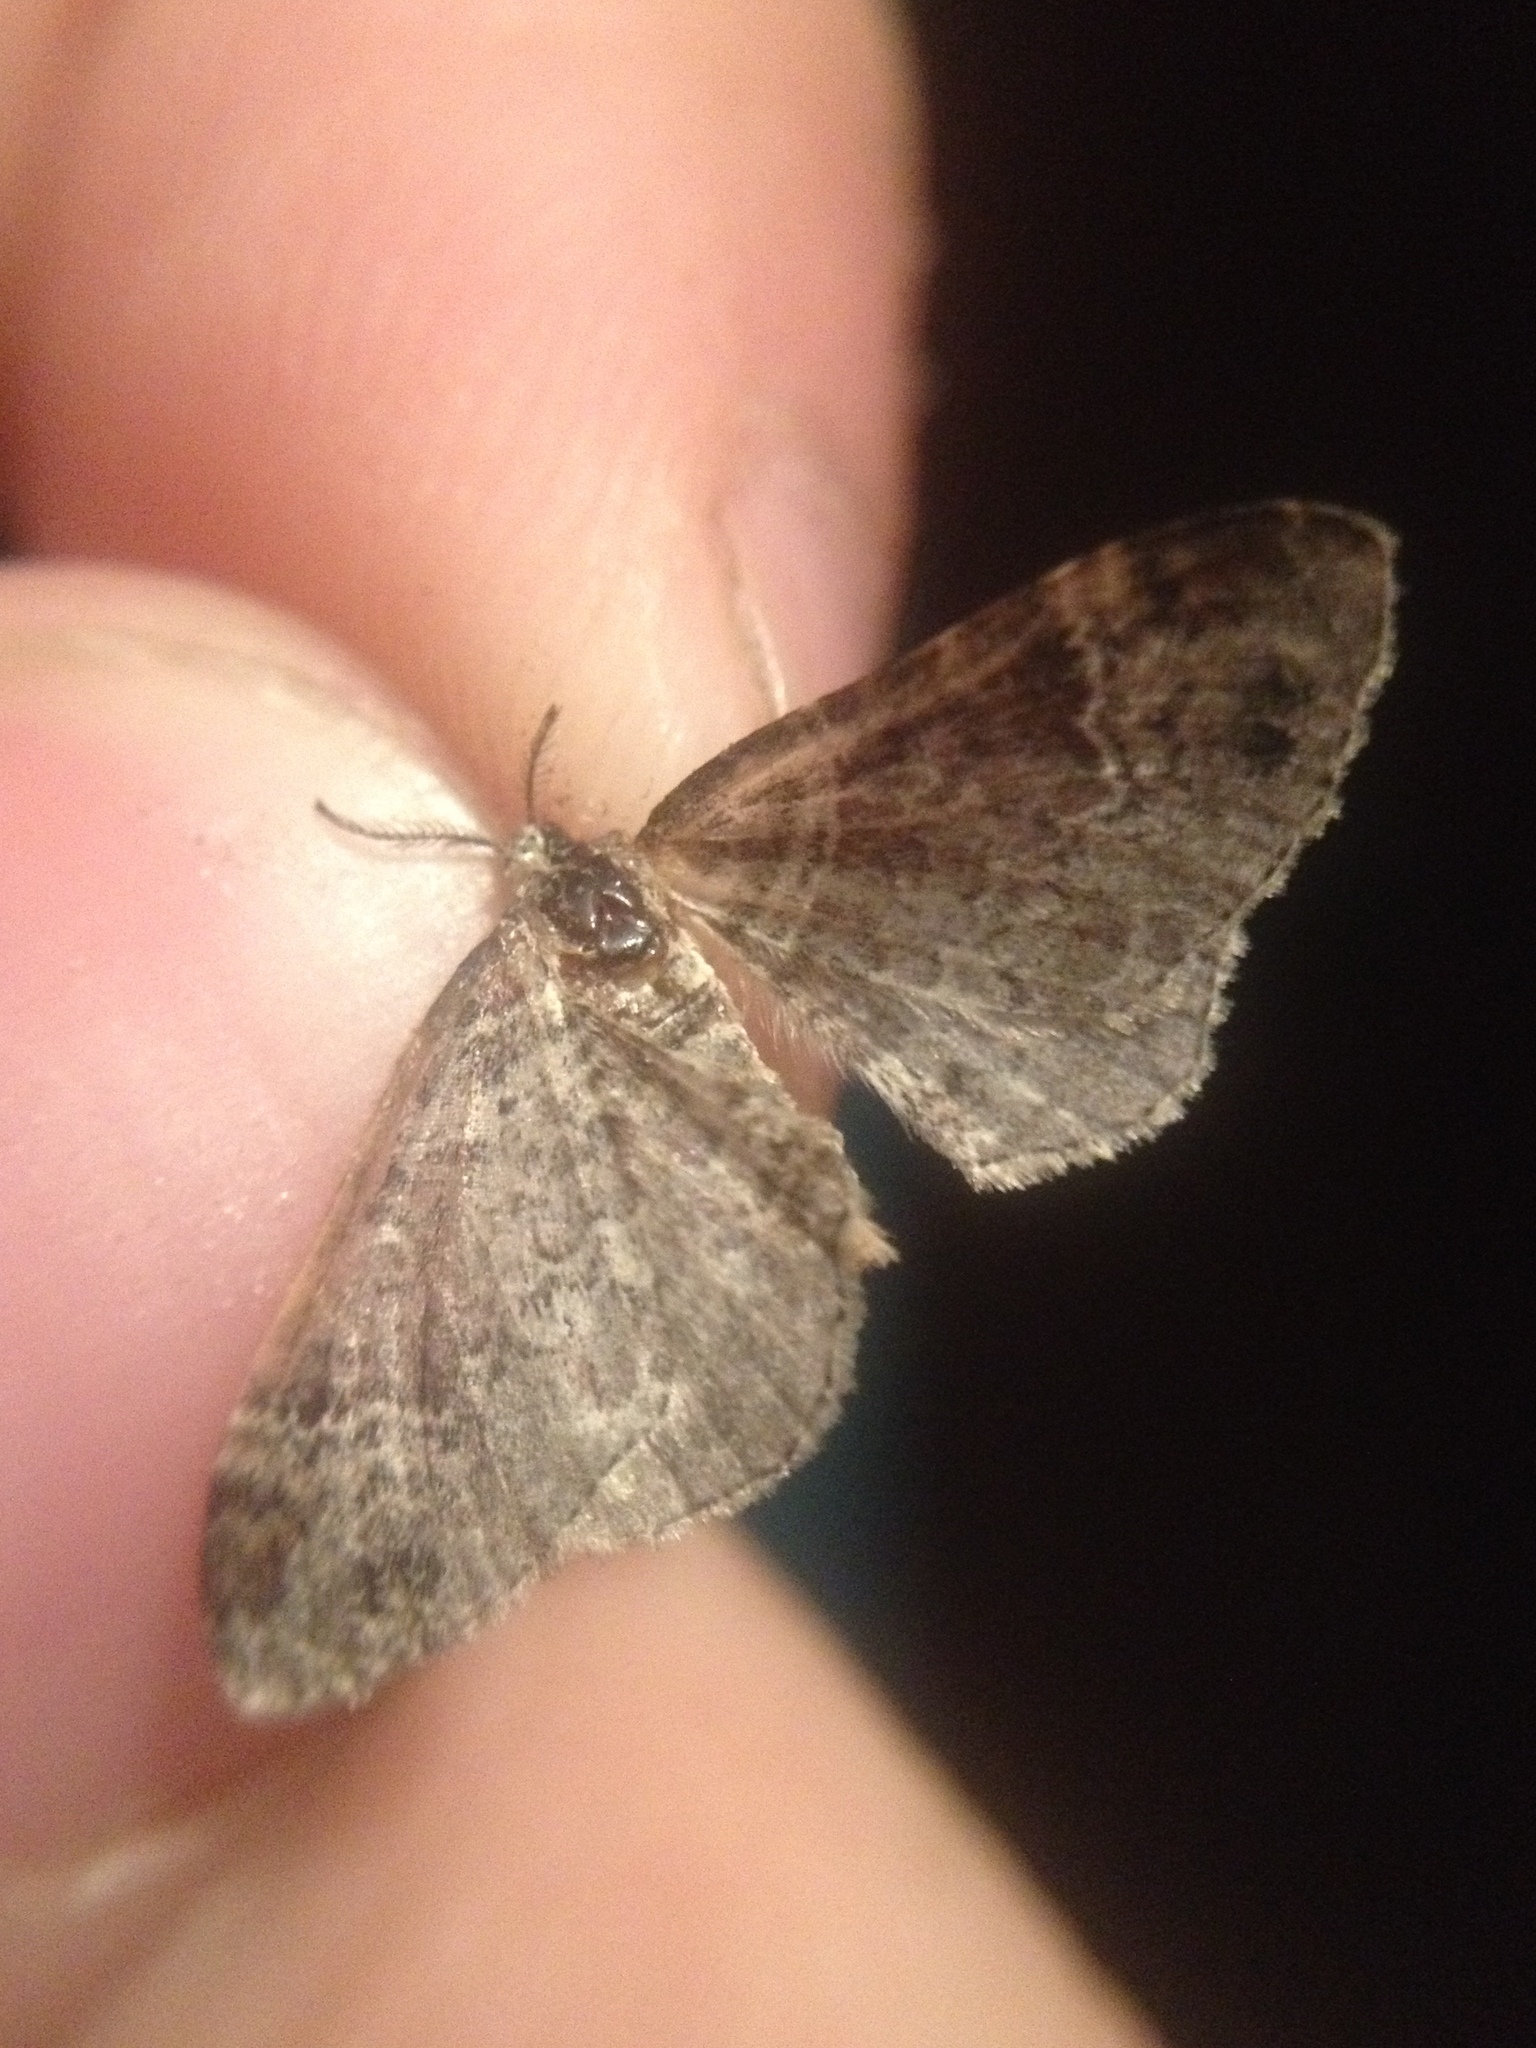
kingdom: Animalia
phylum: Arthropoda
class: Insecta
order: Lepidoptera
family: Geometridae
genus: Xanthorhoe
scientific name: Xanthorhoe ferrugata
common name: Dark-barred twin-spot carpet
